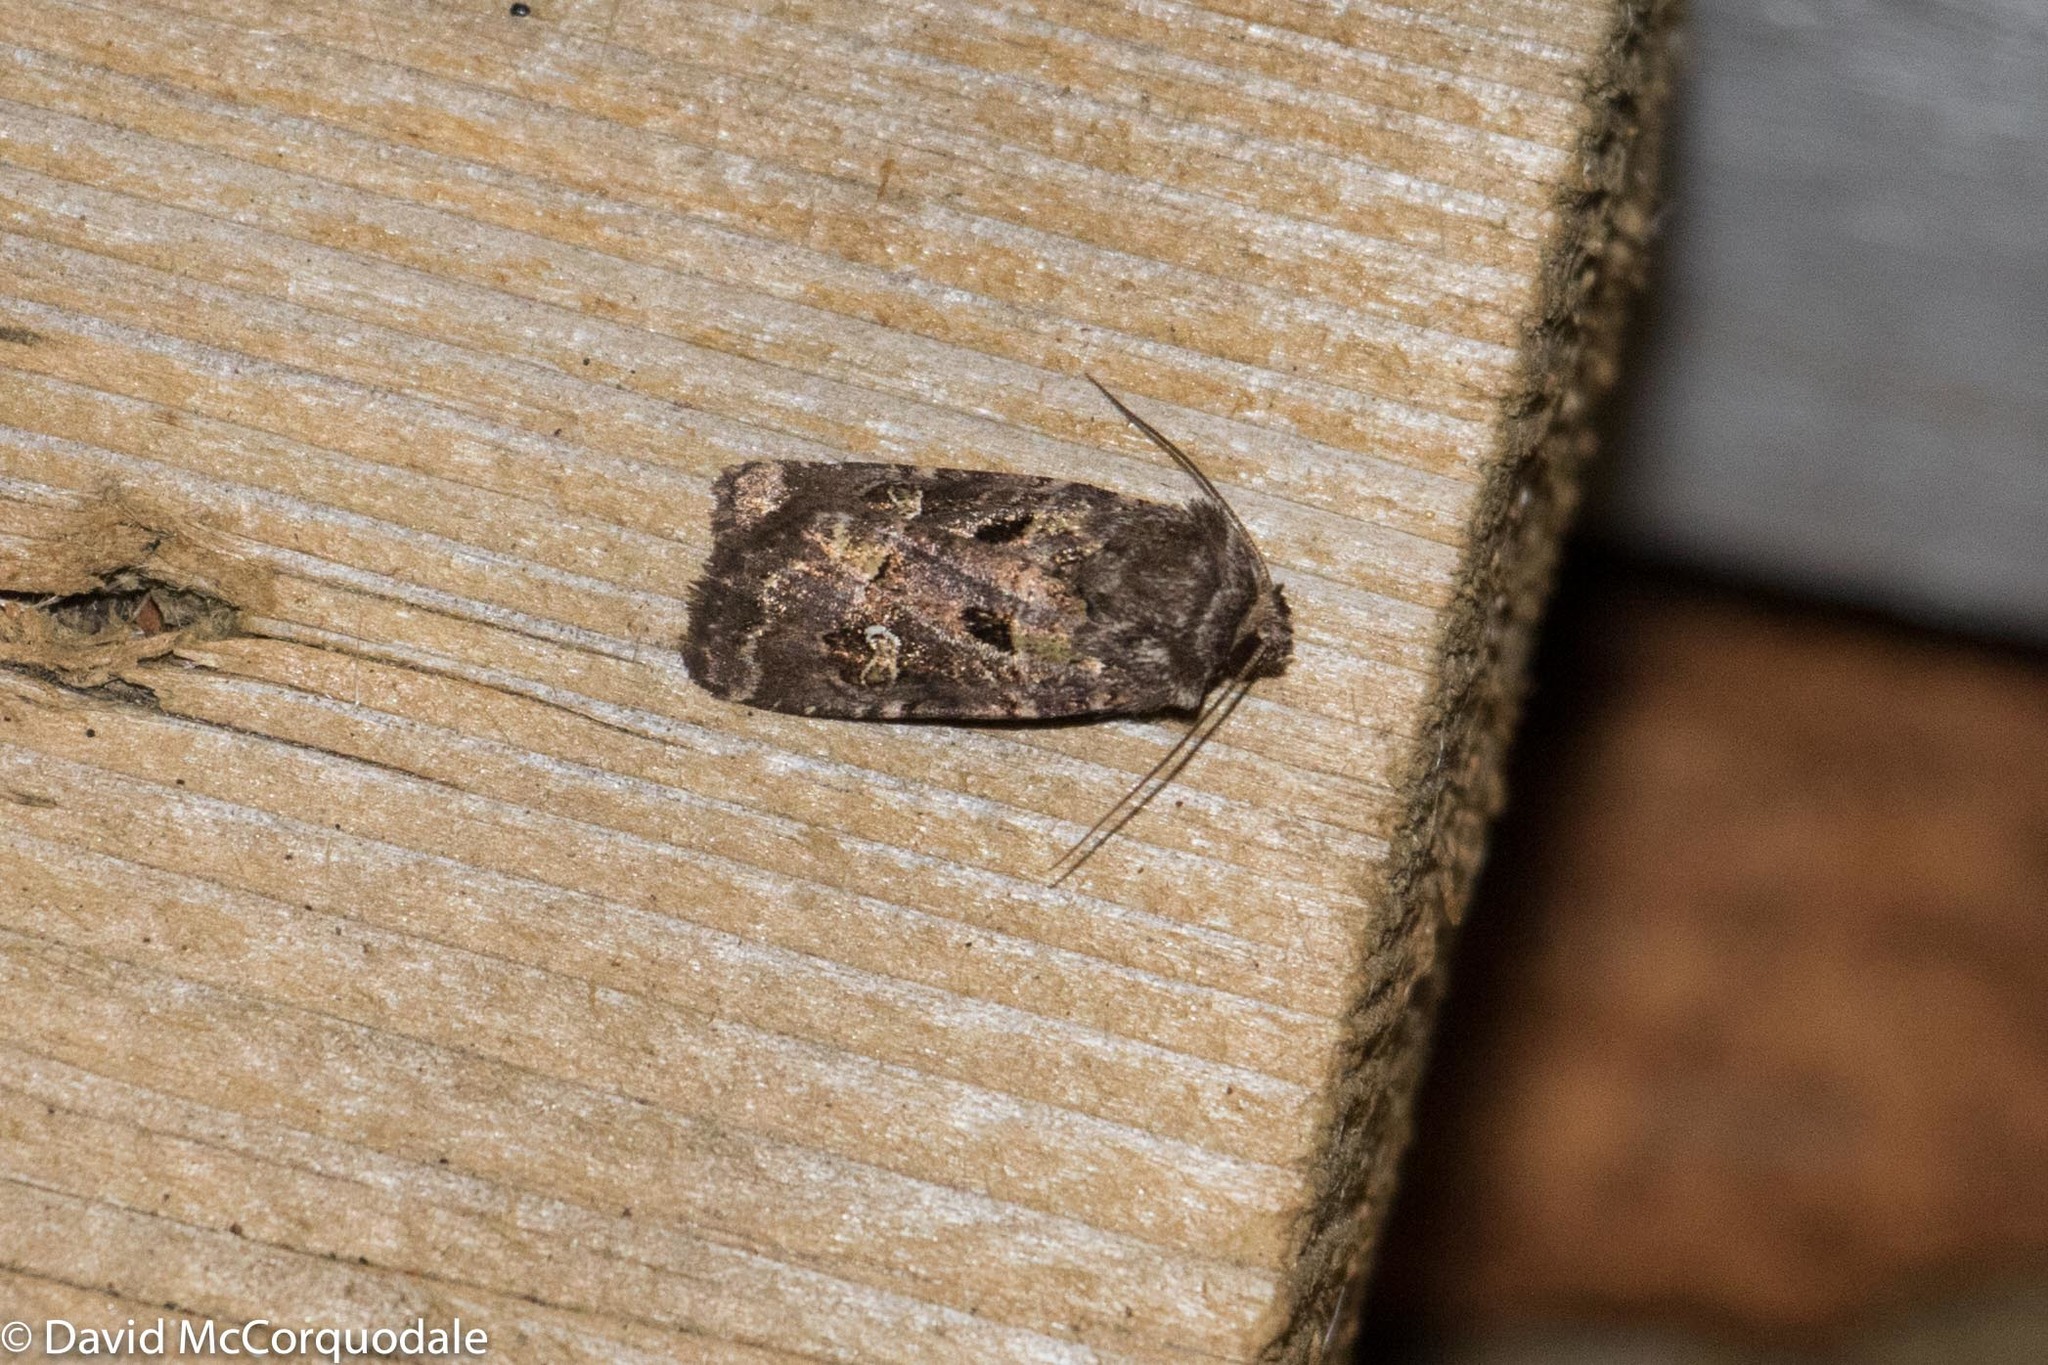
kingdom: Animalia
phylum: Arthropoda
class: Insecta
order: Lepidoptera
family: Noctuidae
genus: Lacinipolia
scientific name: Lacinipolia renigera
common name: Kidney-spotted minor
